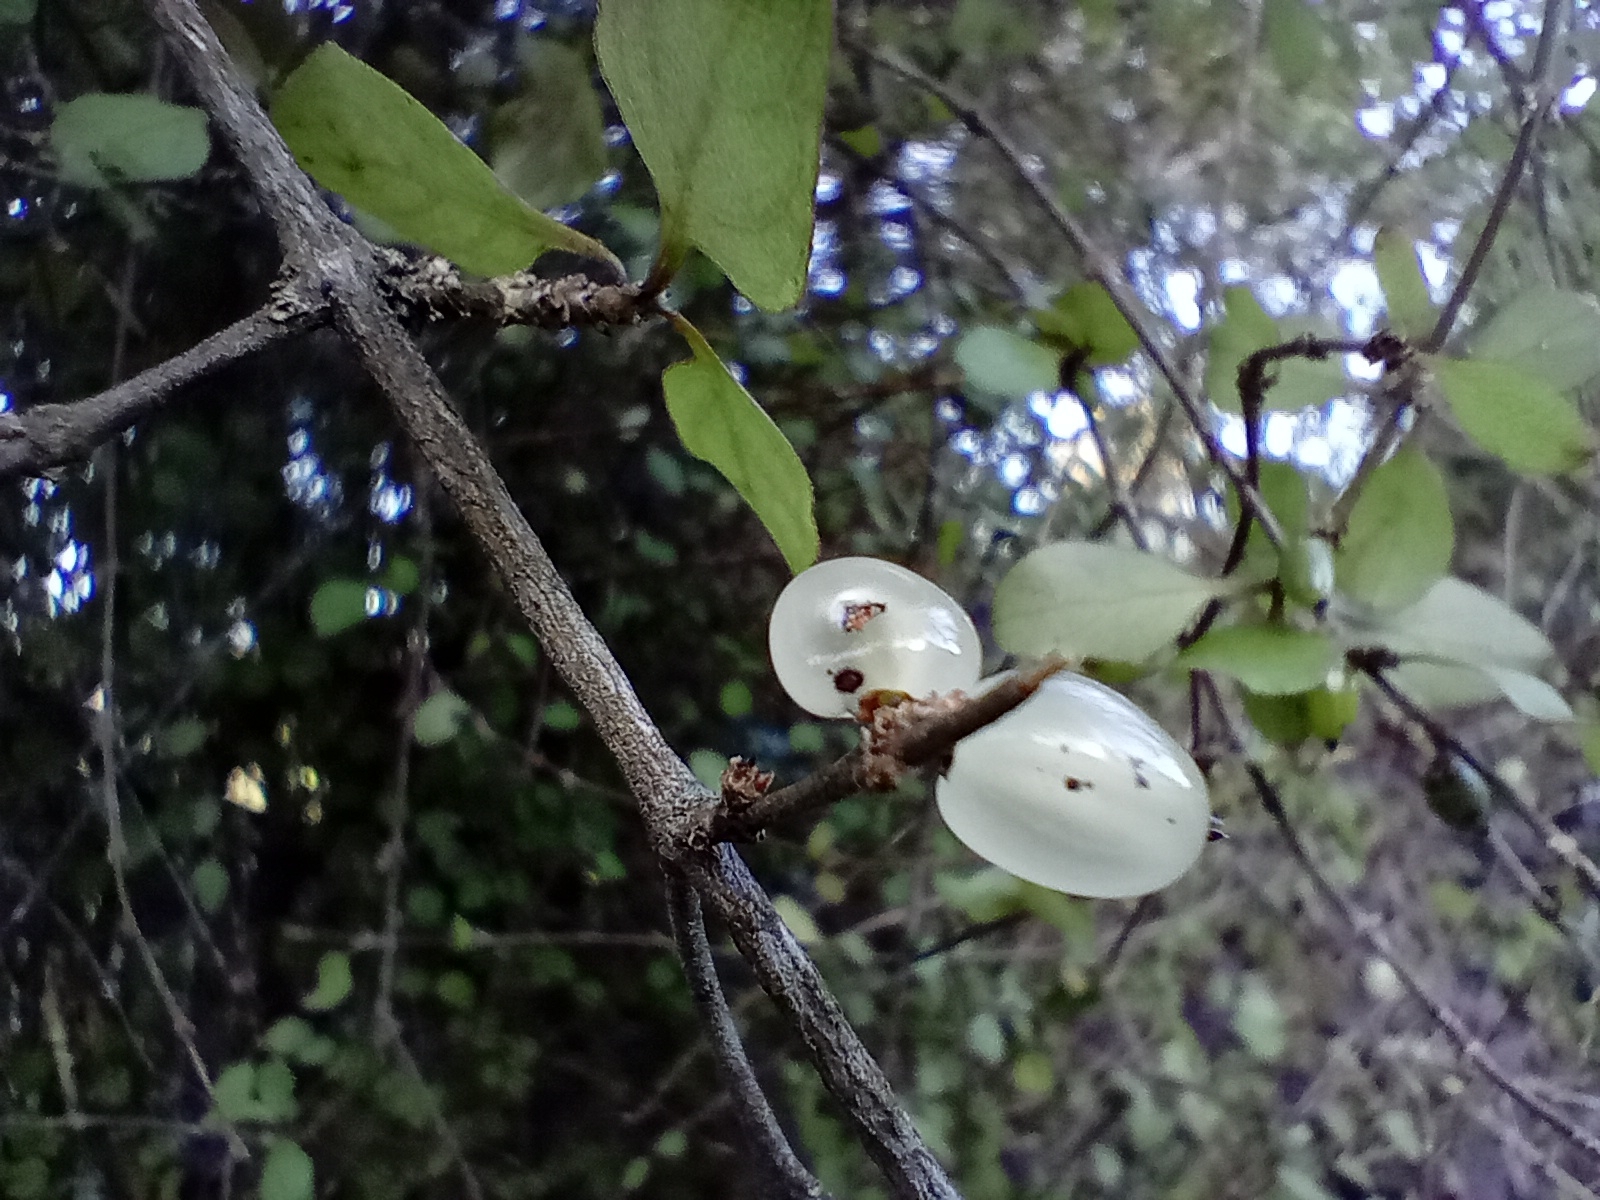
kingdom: Plantae
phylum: Tracheophyta
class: Magnoliopsida
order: Gentianales
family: Rubiaceae
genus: Coprosma
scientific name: Coprosma rubra
